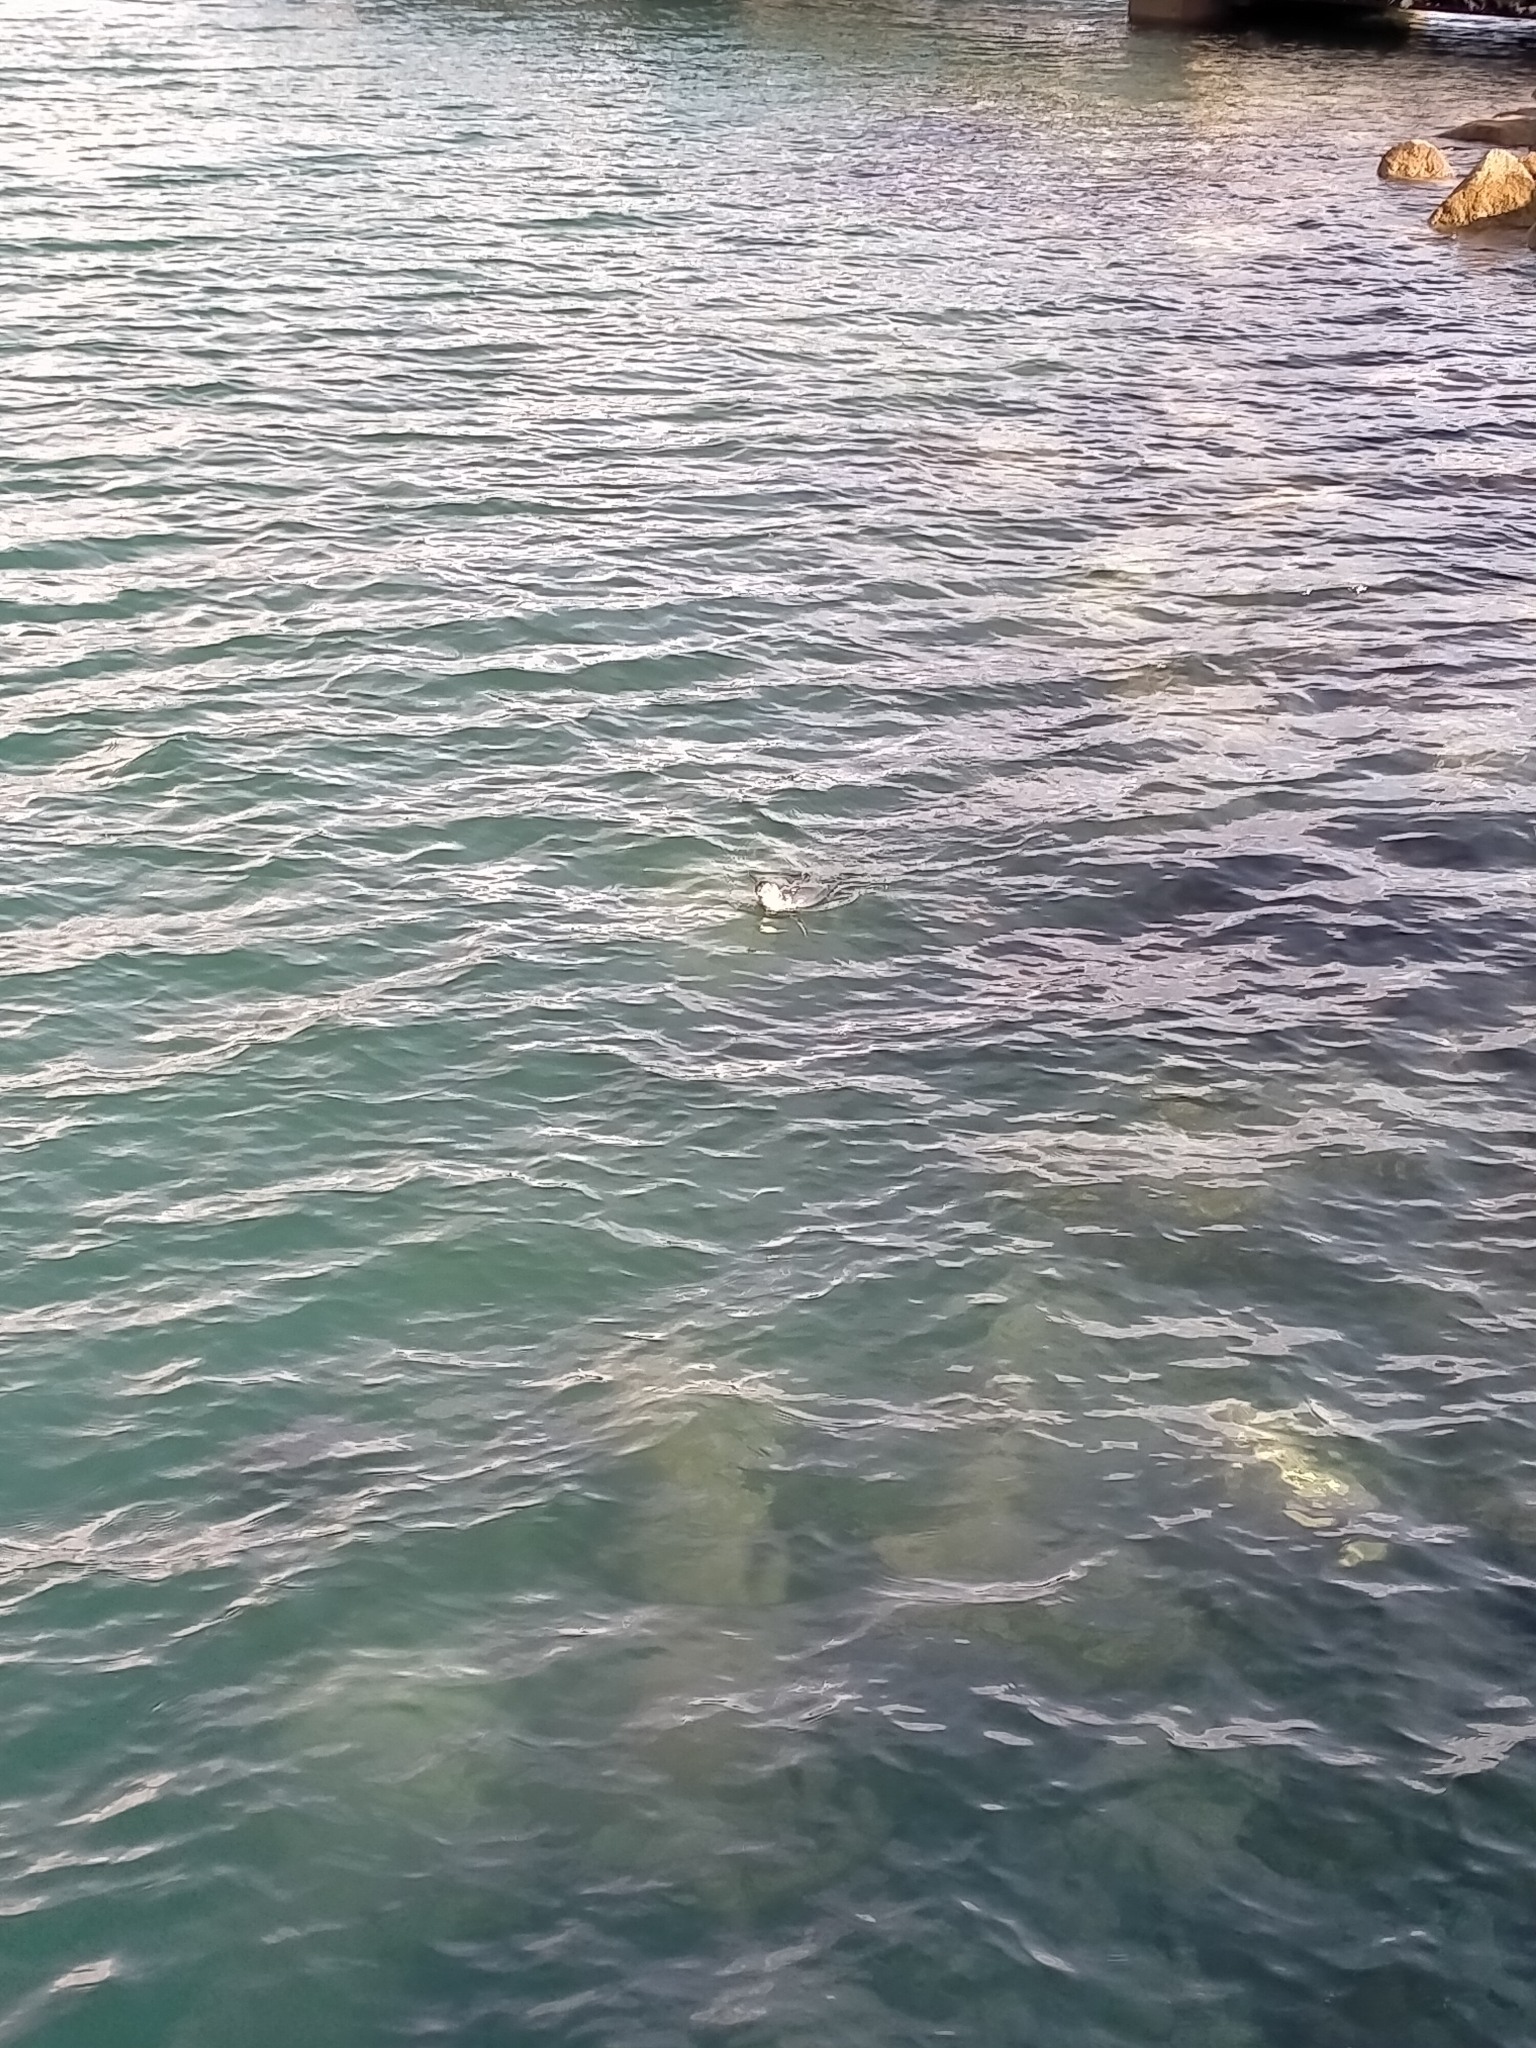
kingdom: Animalia
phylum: Chordata
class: Aves
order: Sphenisciformes
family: Spheniscidae
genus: Eudyptula
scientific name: Eudyptula minor
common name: Little penguin
